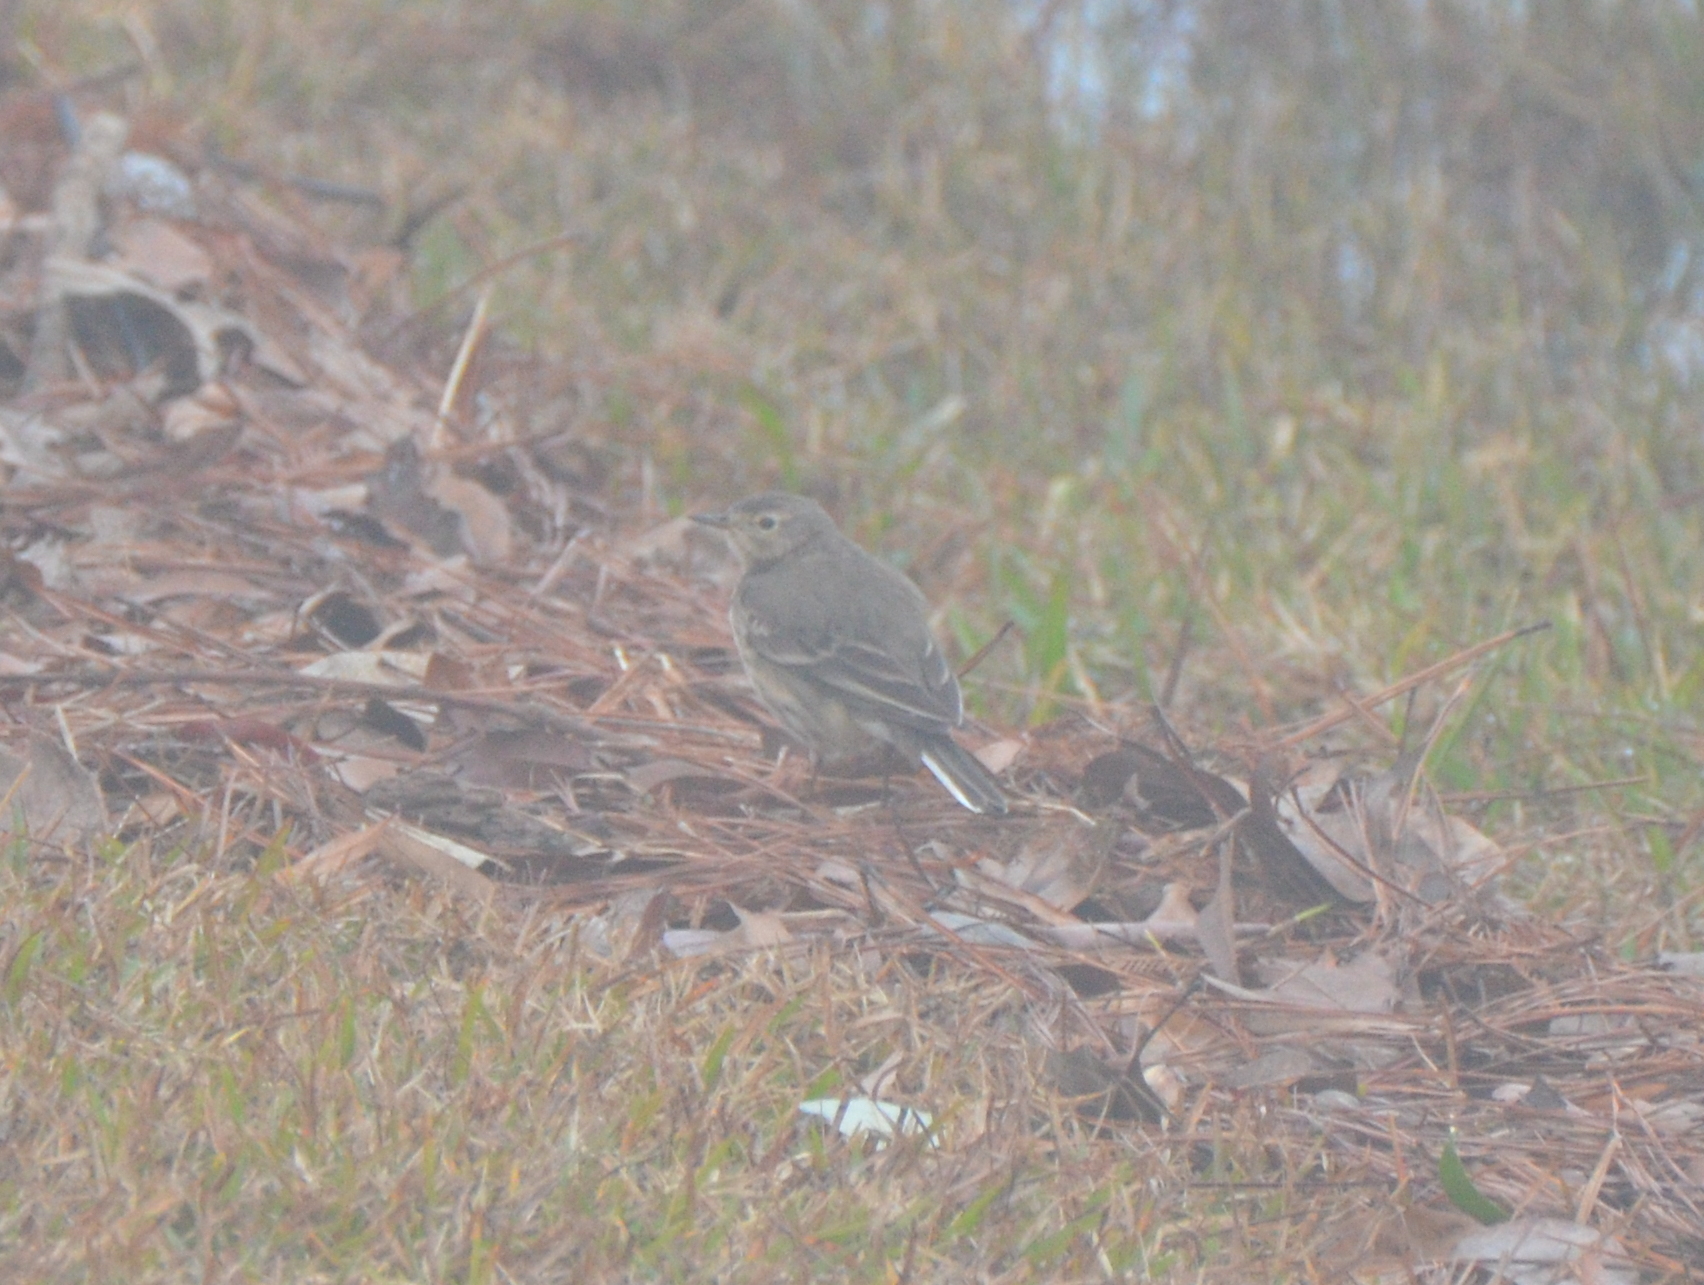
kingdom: Animalia
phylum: Chordata
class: Aves
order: Passeriformes
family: Motacillidae
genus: Anthus
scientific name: Anthus rubescens
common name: Buff-bellied pipit
